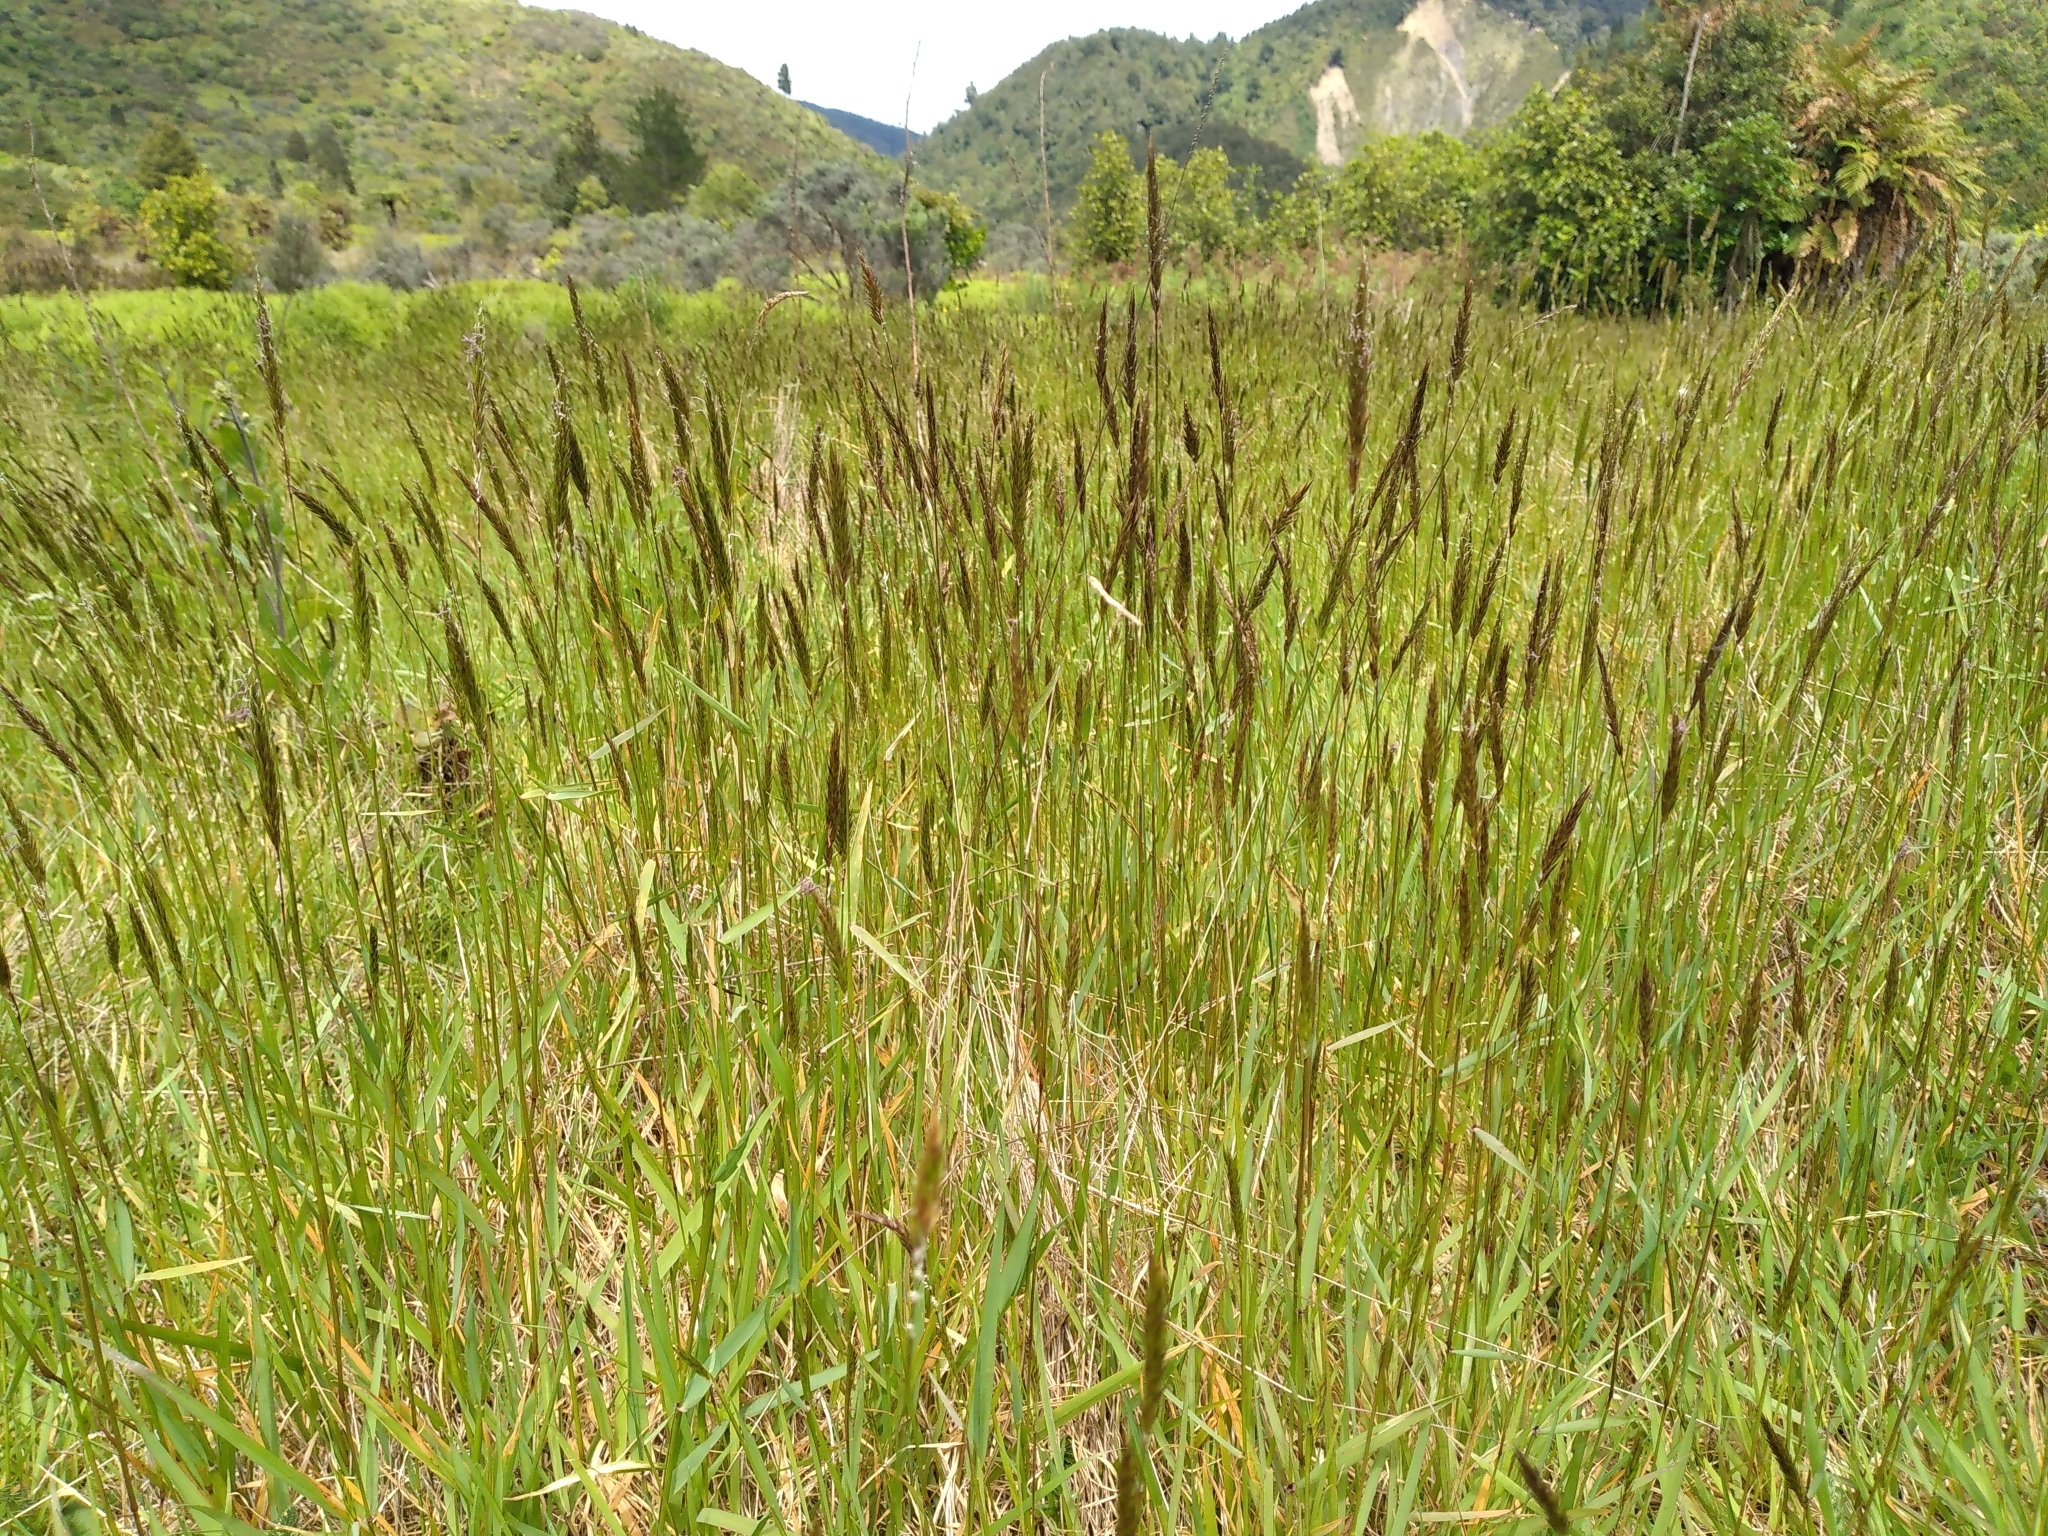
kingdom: Plantae
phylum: Tracheophyta
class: Liliopsida
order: Poales
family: Poaceae
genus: Anthoxanthum
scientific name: Anthoxanthum odoratum
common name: Sweet vernalgrass
